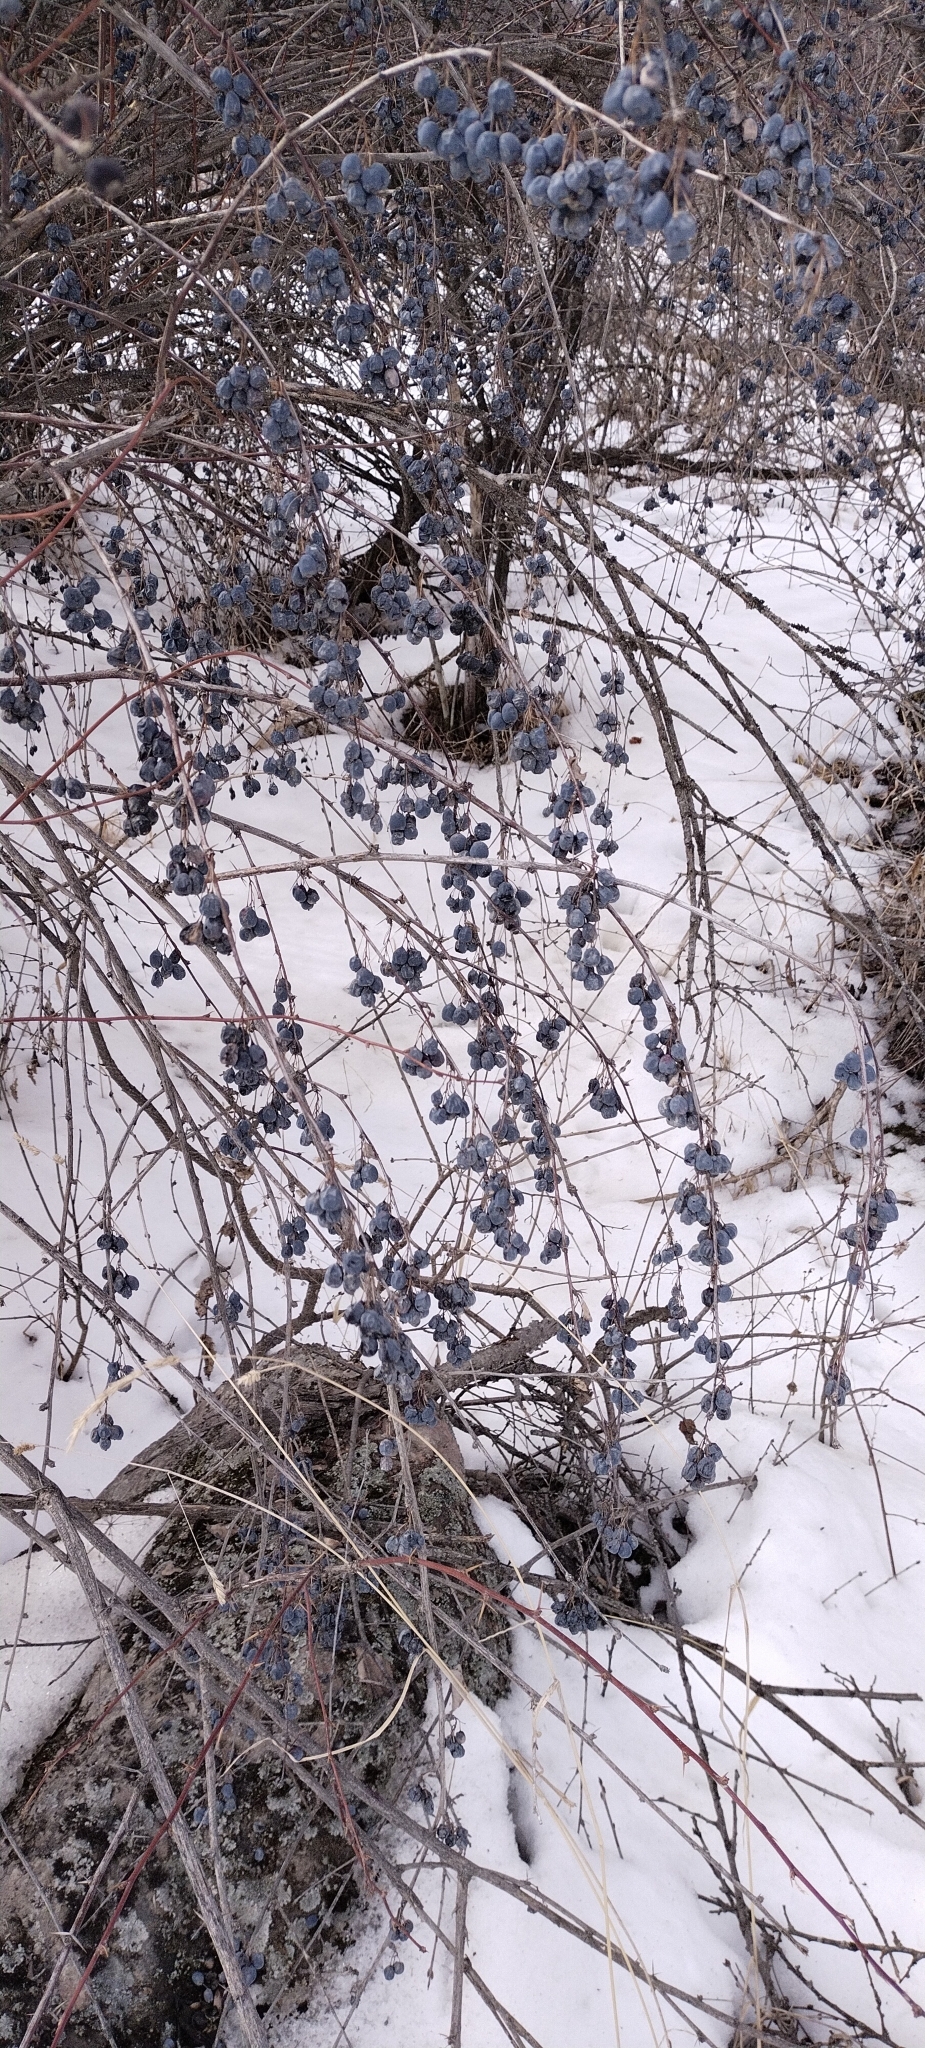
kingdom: Plantae
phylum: Tracheophyta
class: Magnoliopsida
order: Ranunculales
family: Berberidaceae
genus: Berberis
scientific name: Berberis heteropoda
